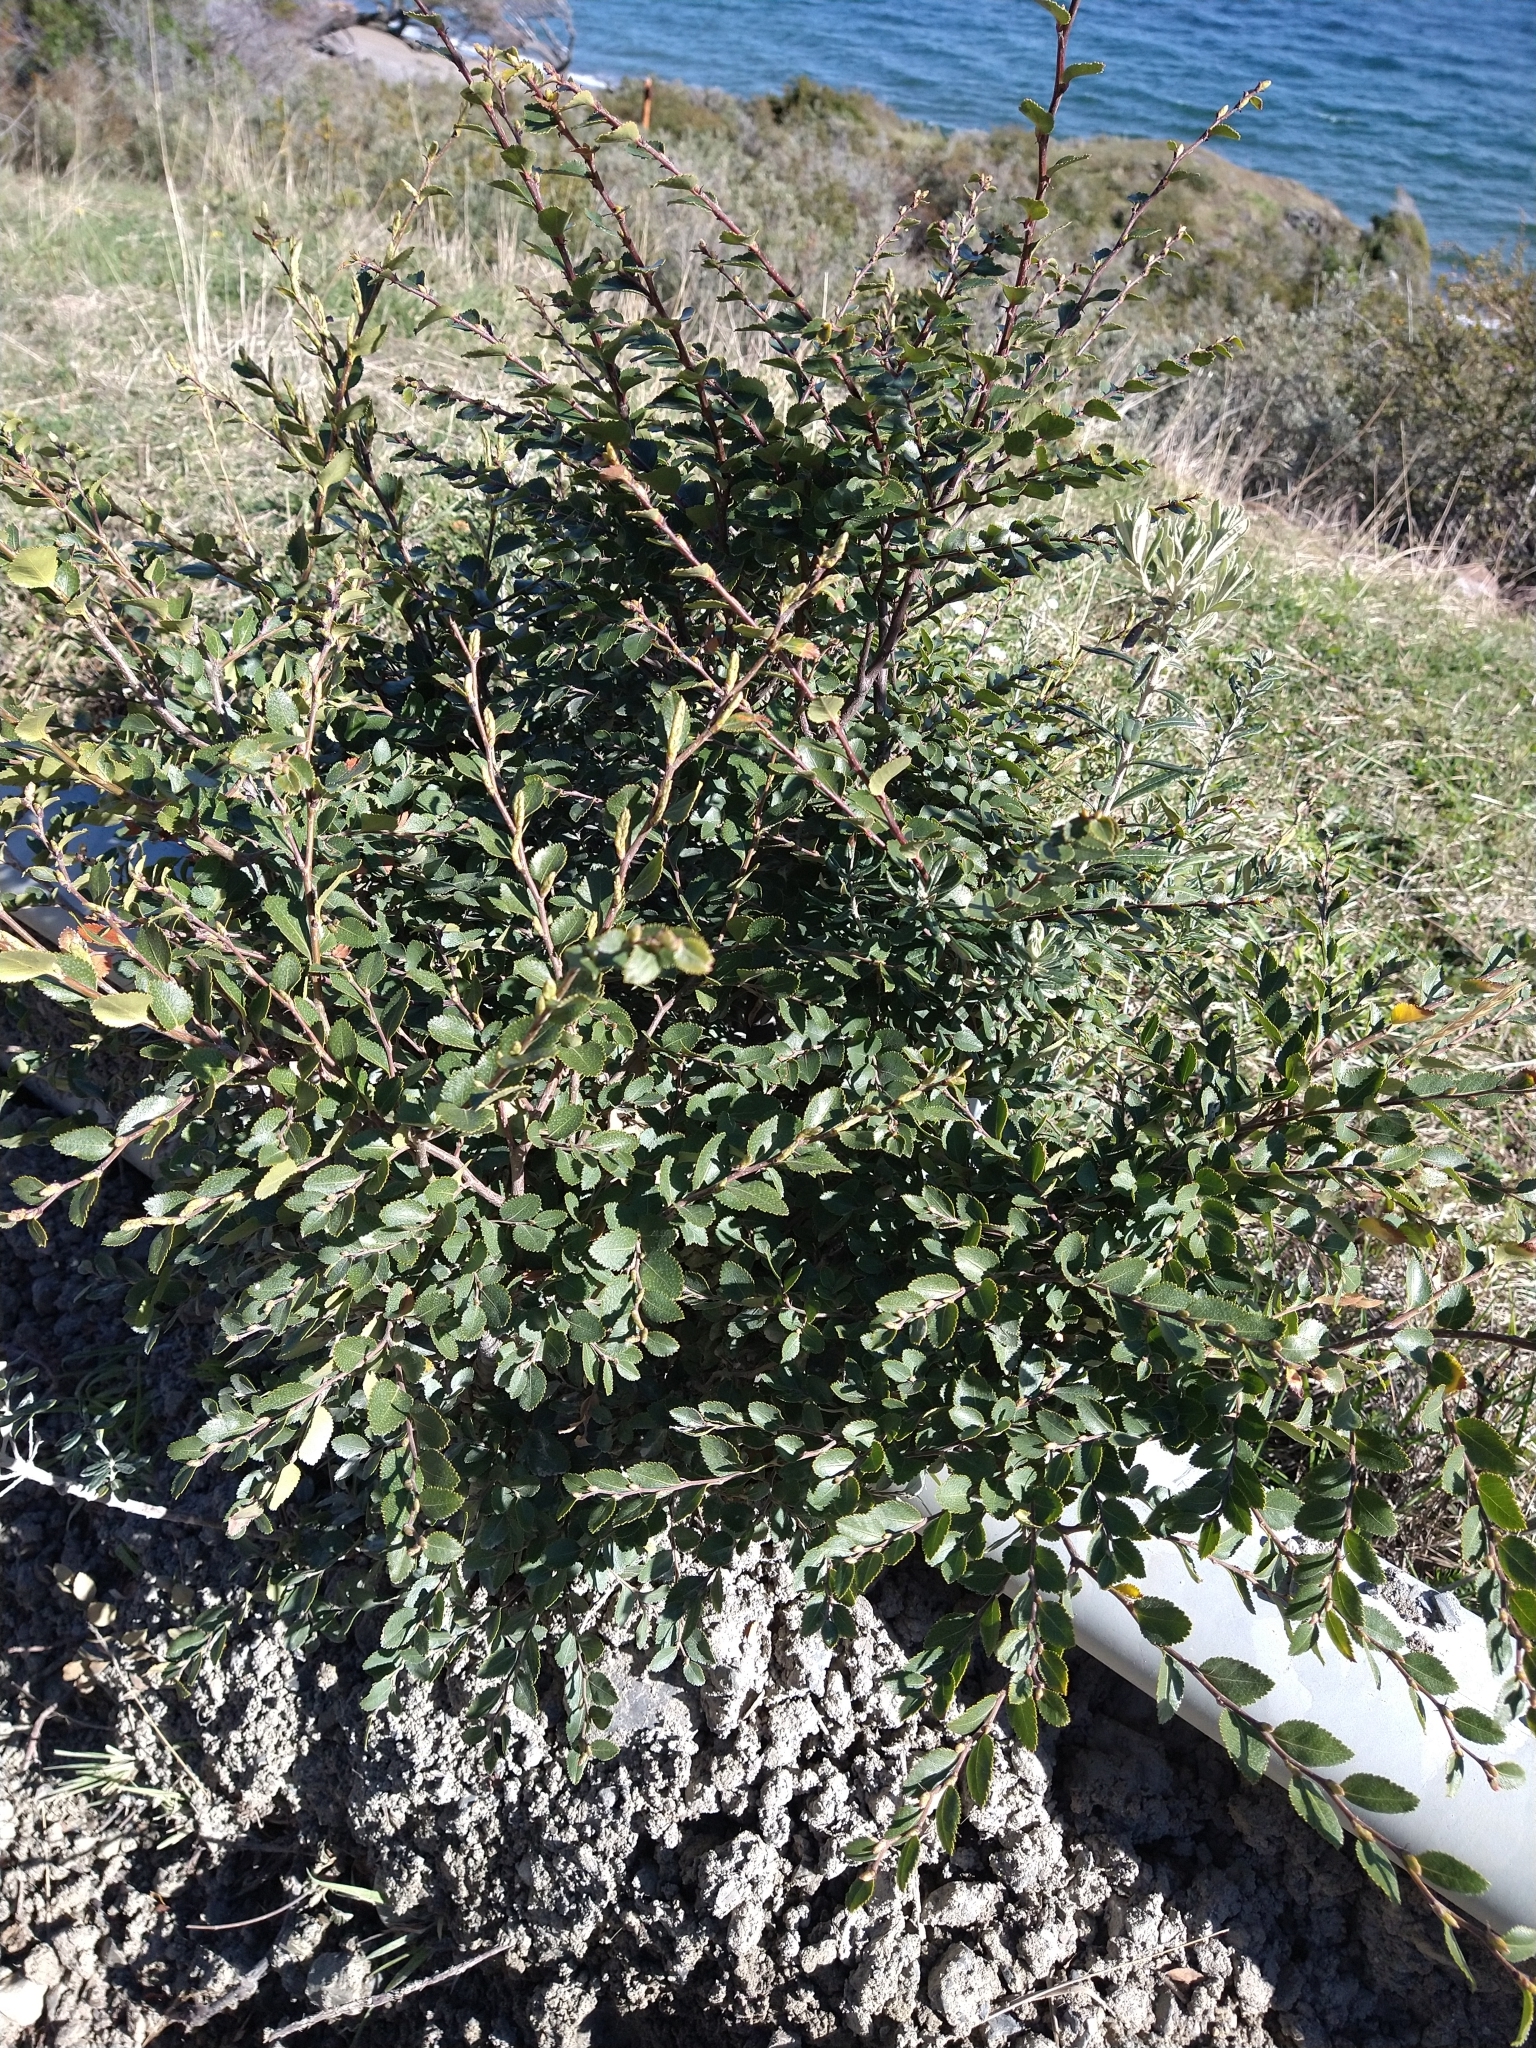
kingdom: Plantae
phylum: Tracheophyta
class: Magnoliopsida
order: Fagales
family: Nothofagaceae
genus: Nothofagus
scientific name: Nothofagus betuloides
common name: Magellan's beech
